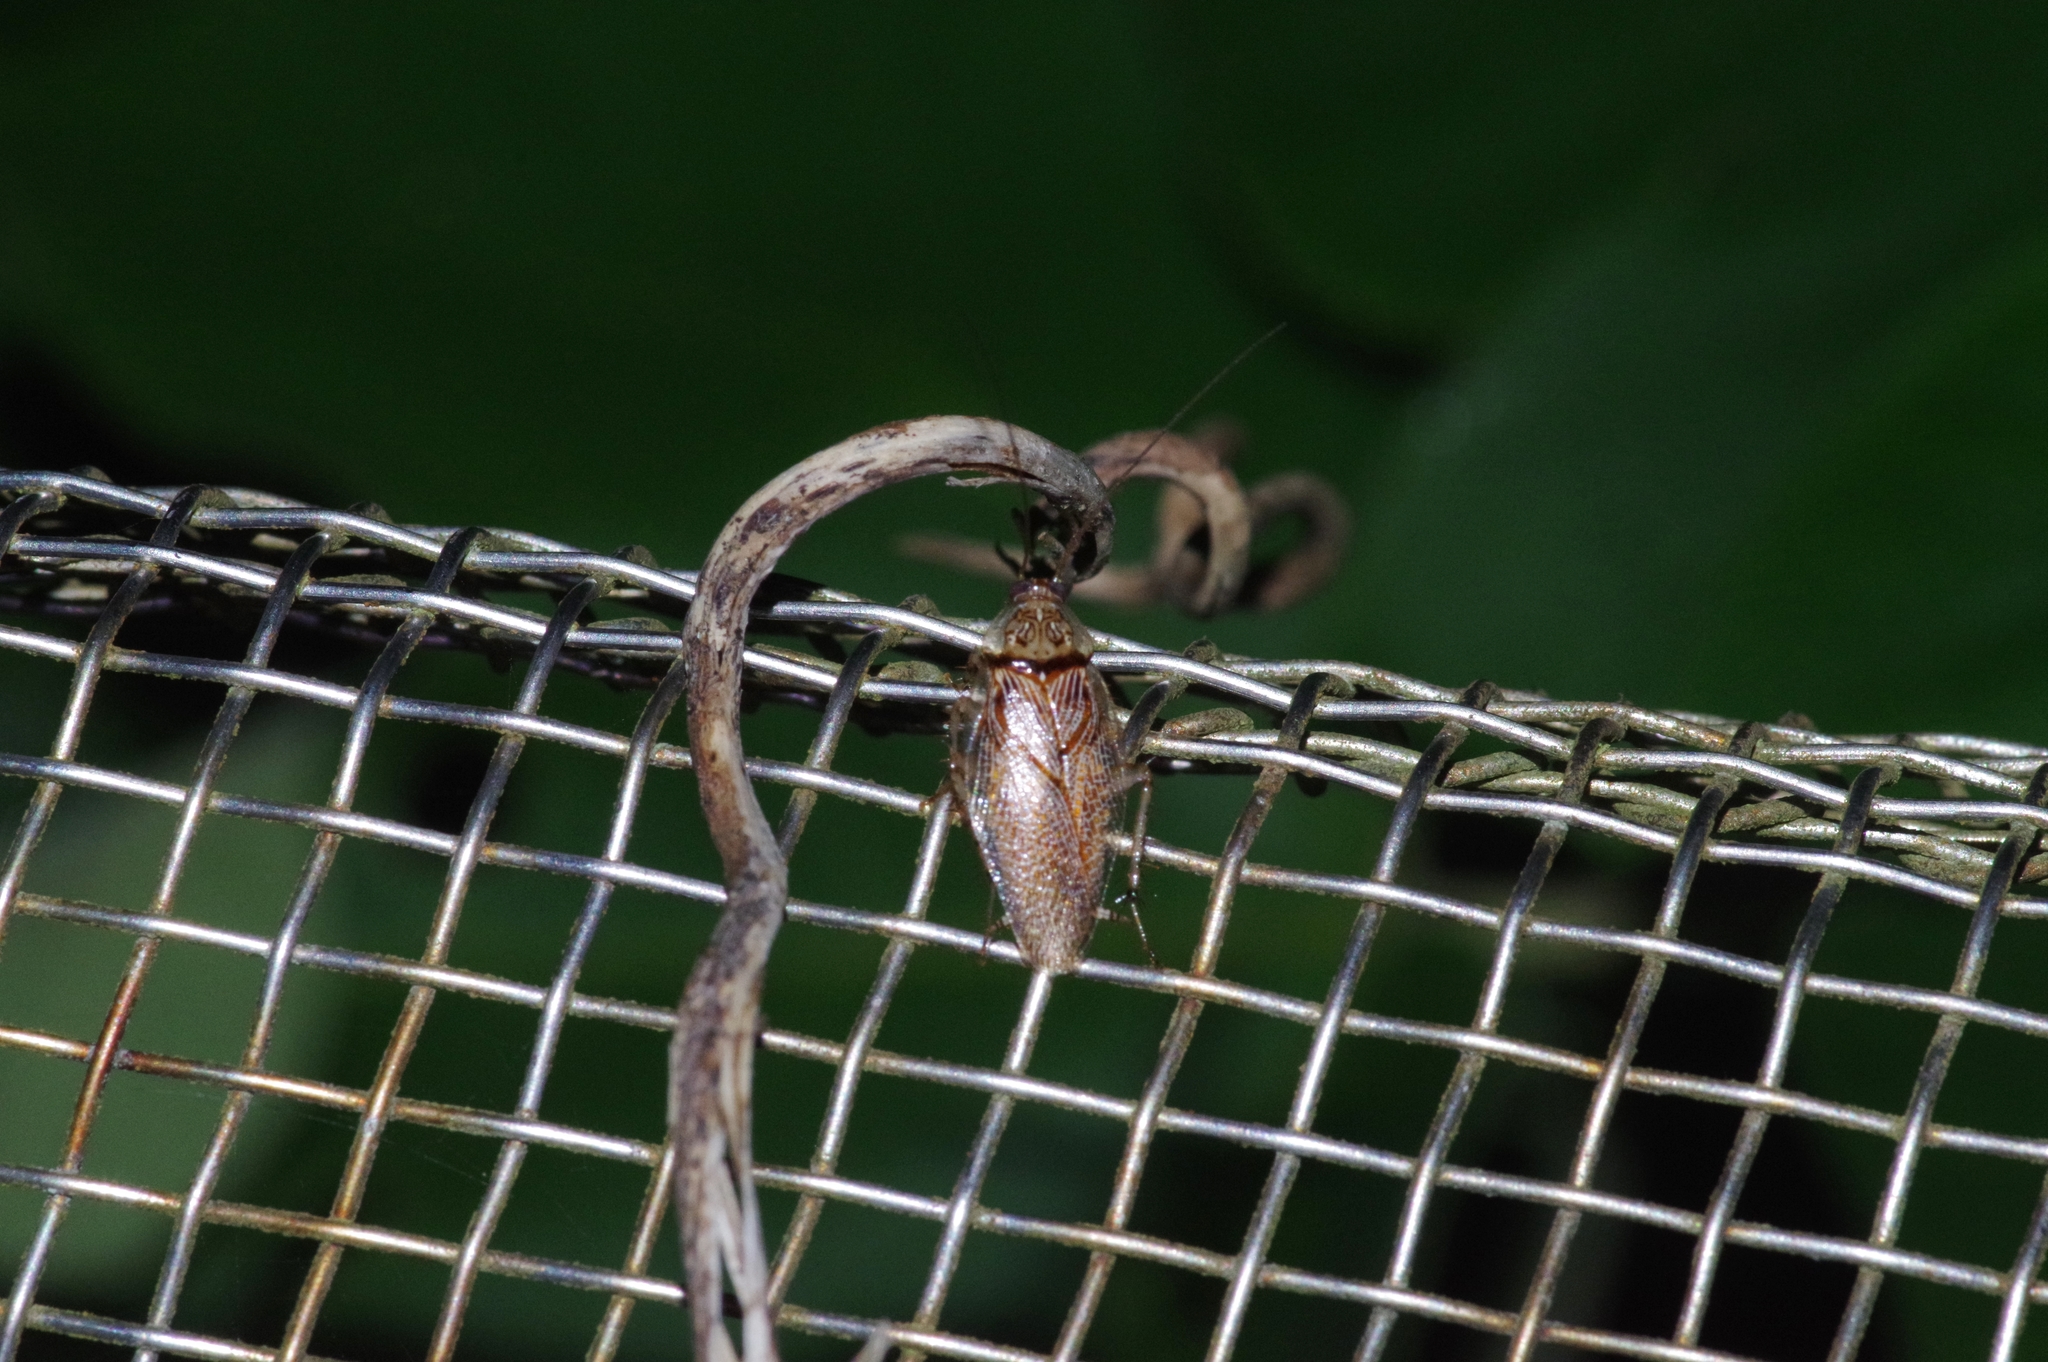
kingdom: Animalia
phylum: Arthropoda
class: Insecta
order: Blattodea
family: Ectobiidae
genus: Balta
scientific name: Balta notulata
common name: Cockroach
